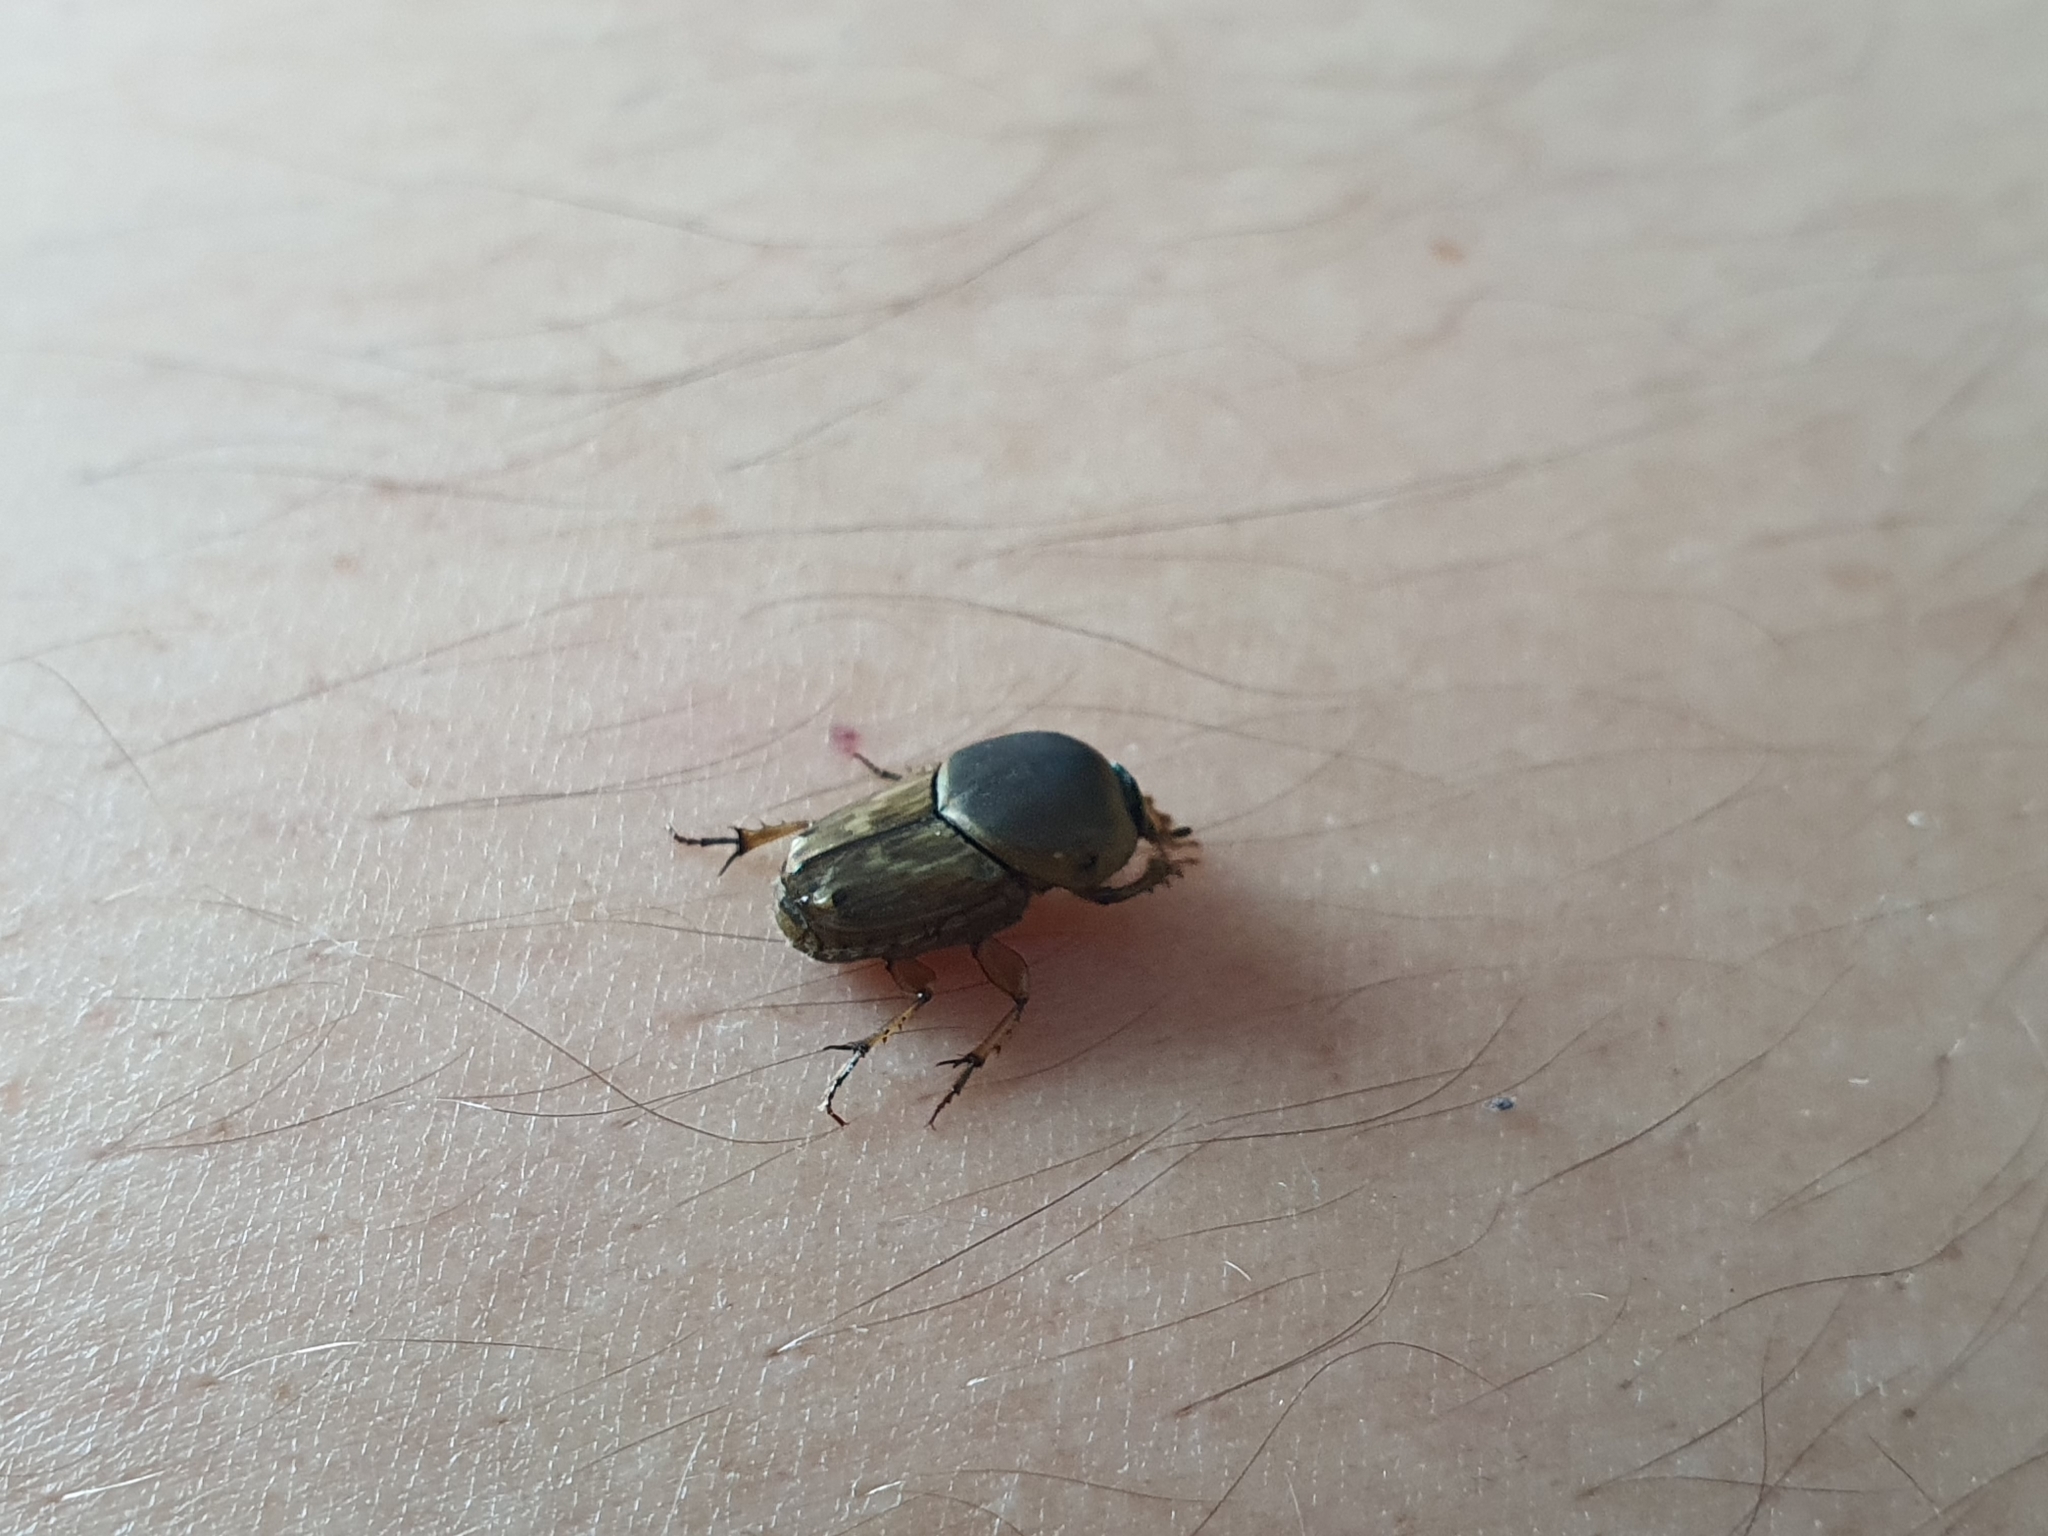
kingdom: Animalia
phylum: Arthropoda
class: Insecta
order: Coleoptera
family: Scarabaeidae
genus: Euoniticellus
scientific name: Euoniticellus fulvus
